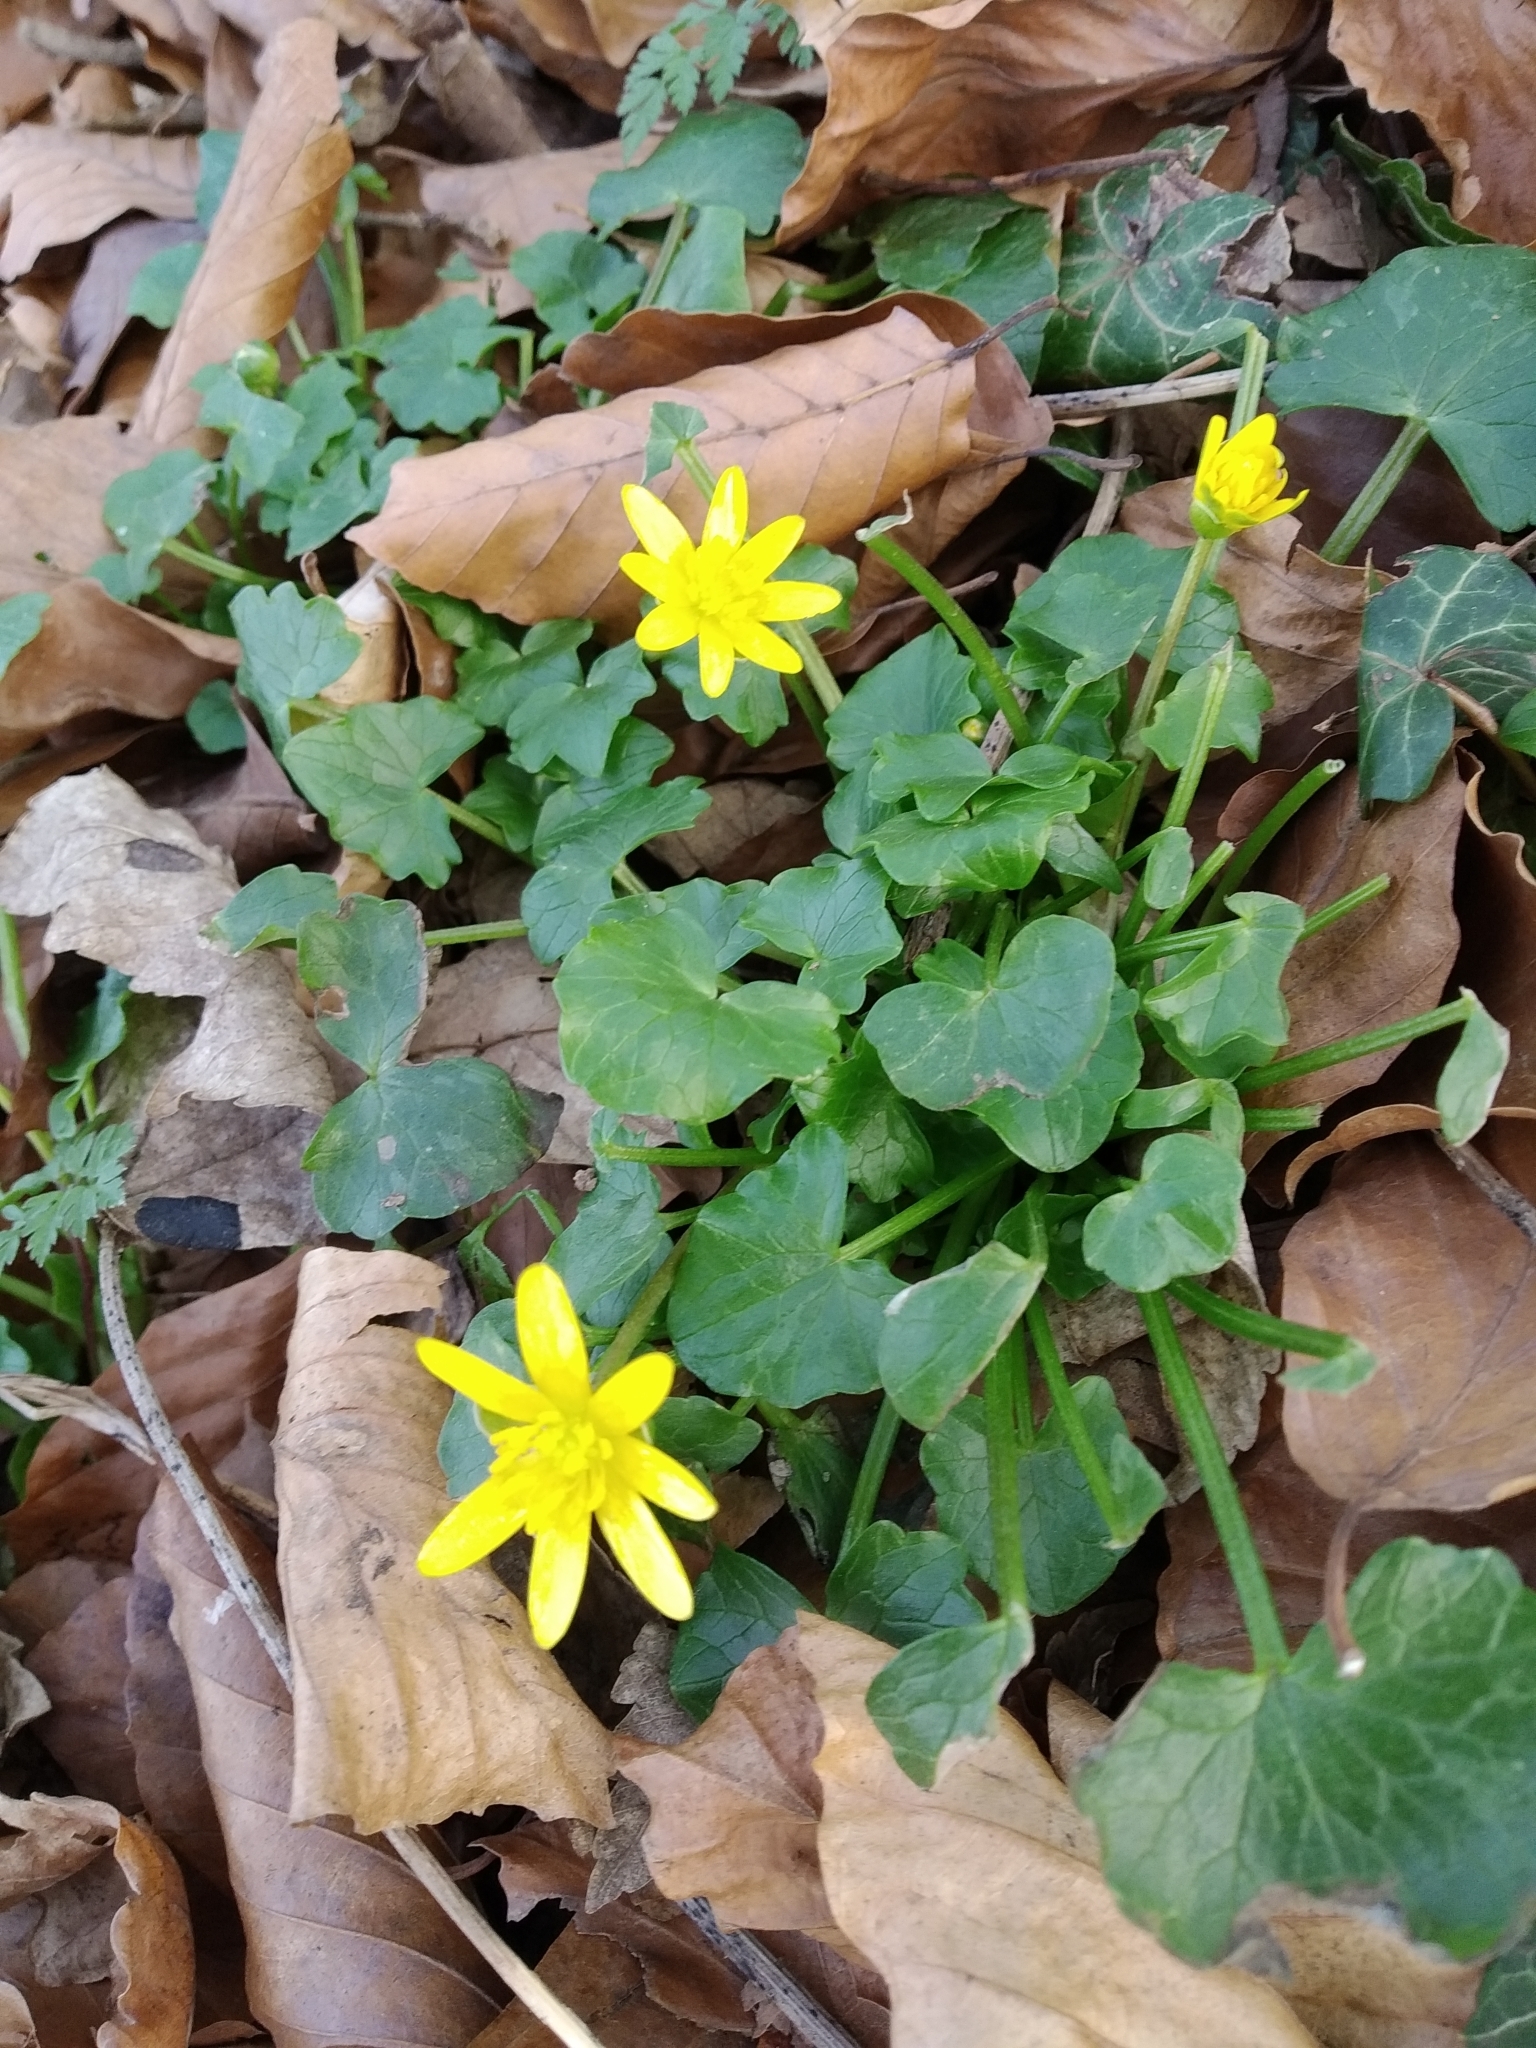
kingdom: Plantae
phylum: Tracheophyta
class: Magnoliopsida
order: Ranunculales
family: Ranunculaceae
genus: Ficaria
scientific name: Ficaria verna
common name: Lesser celandine
